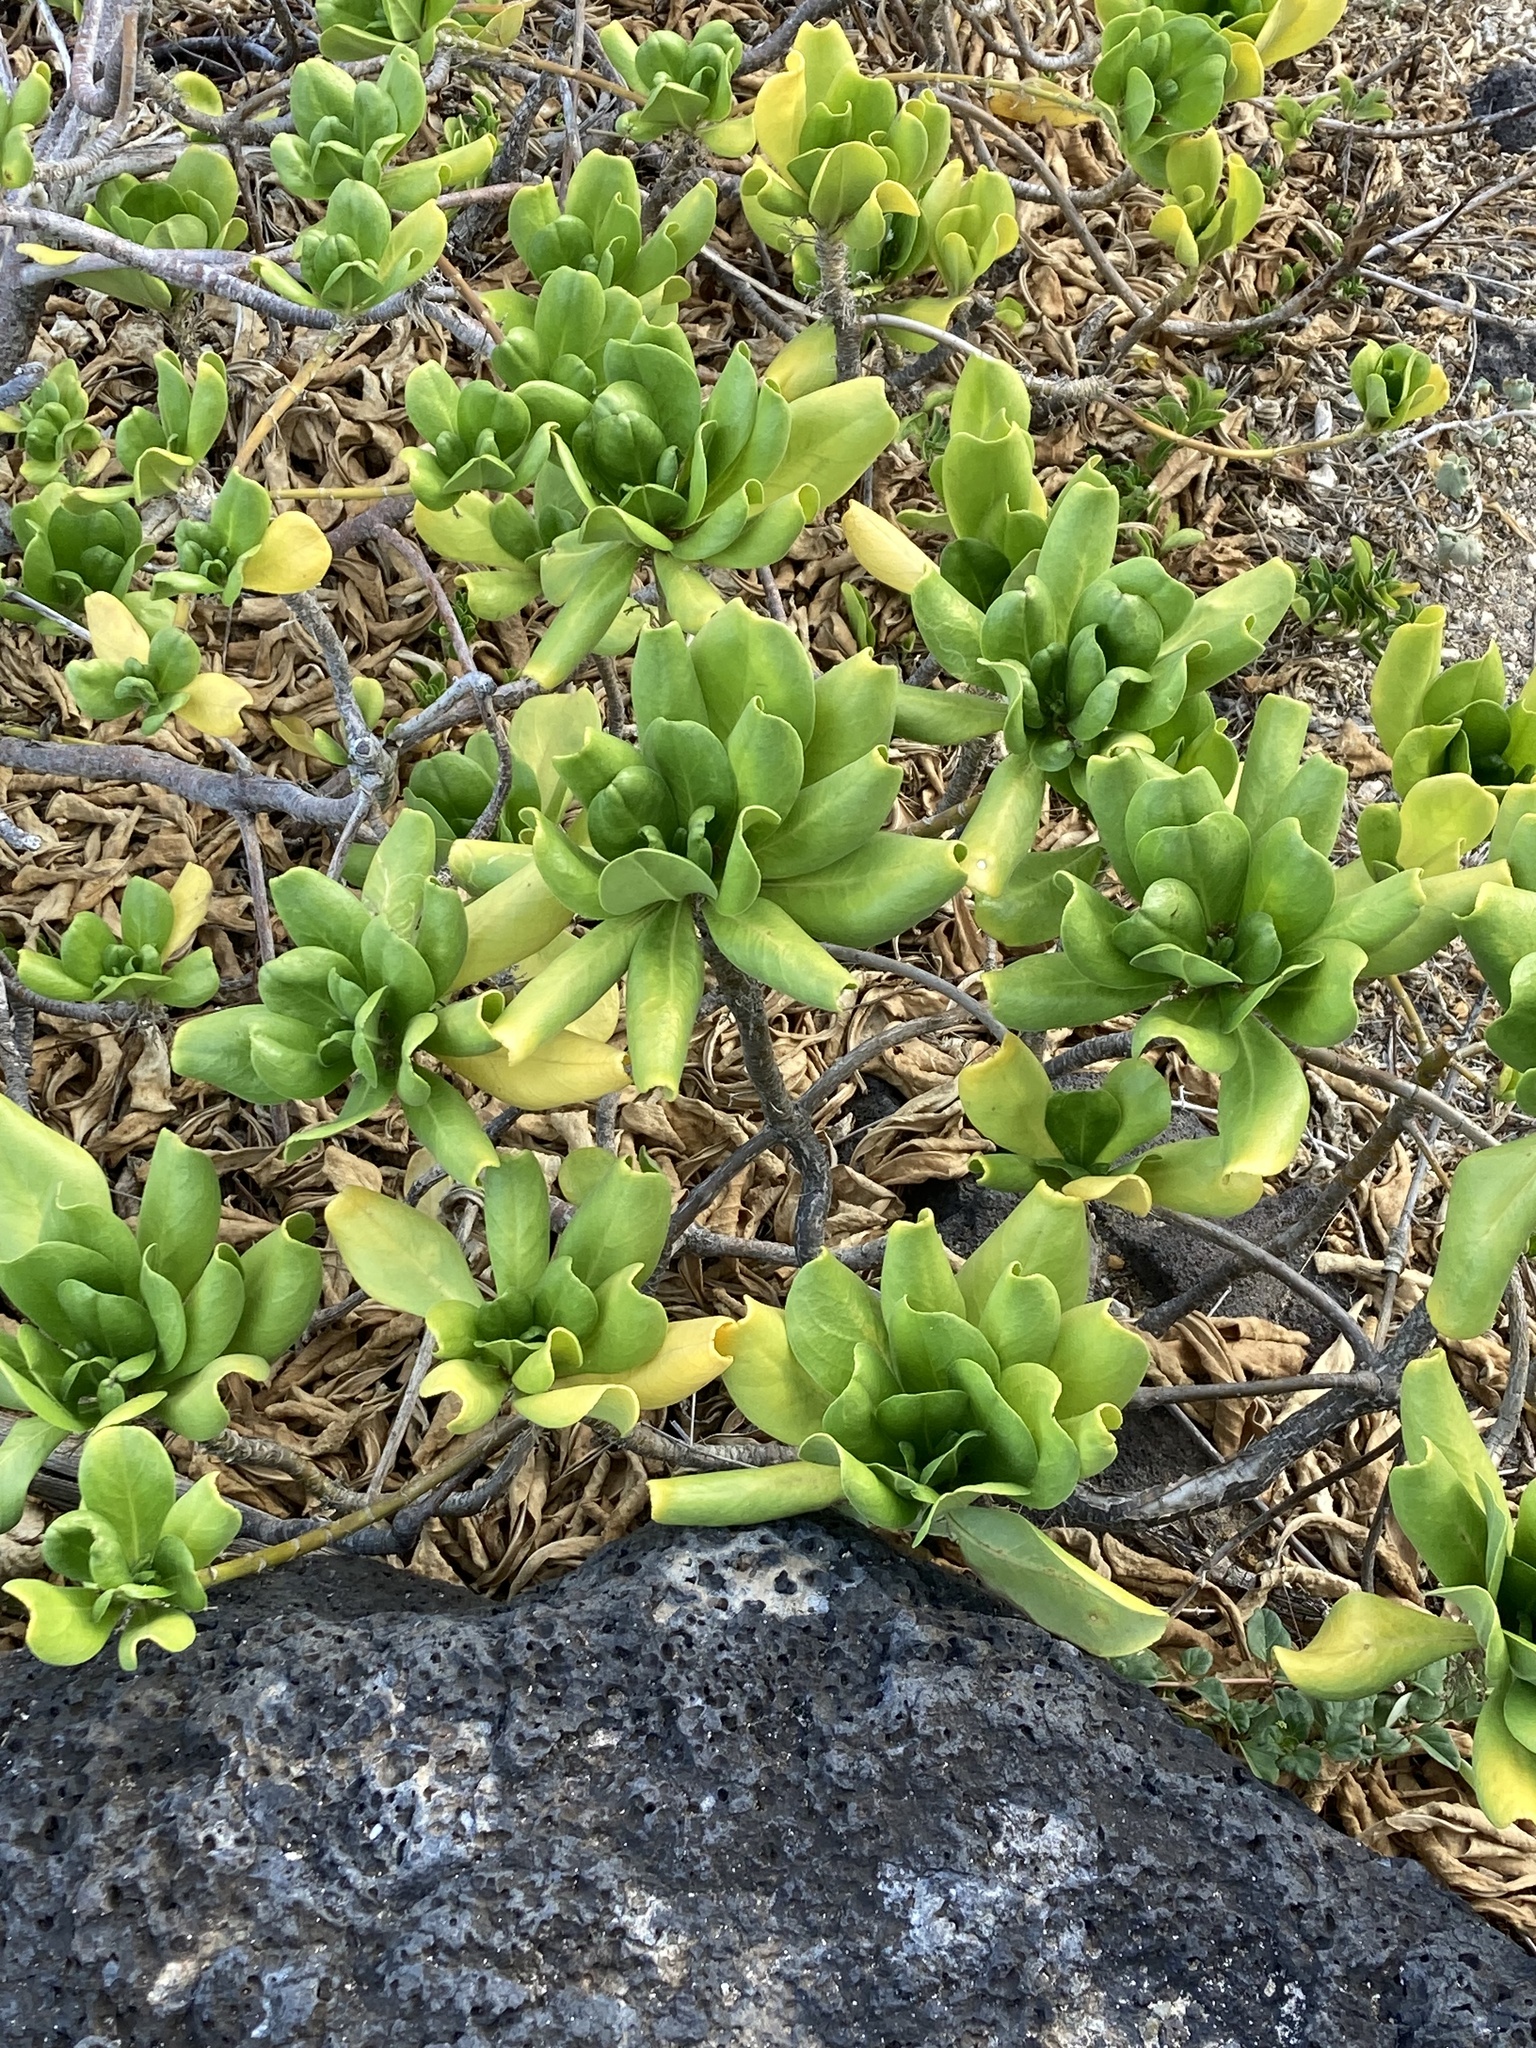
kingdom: Plantae
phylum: Tracheophyta
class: Magnoliopsida
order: Asterales
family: Goodeniaceae
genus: Scaevola
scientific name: Scaevola taccada
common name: Sea lettucetree
